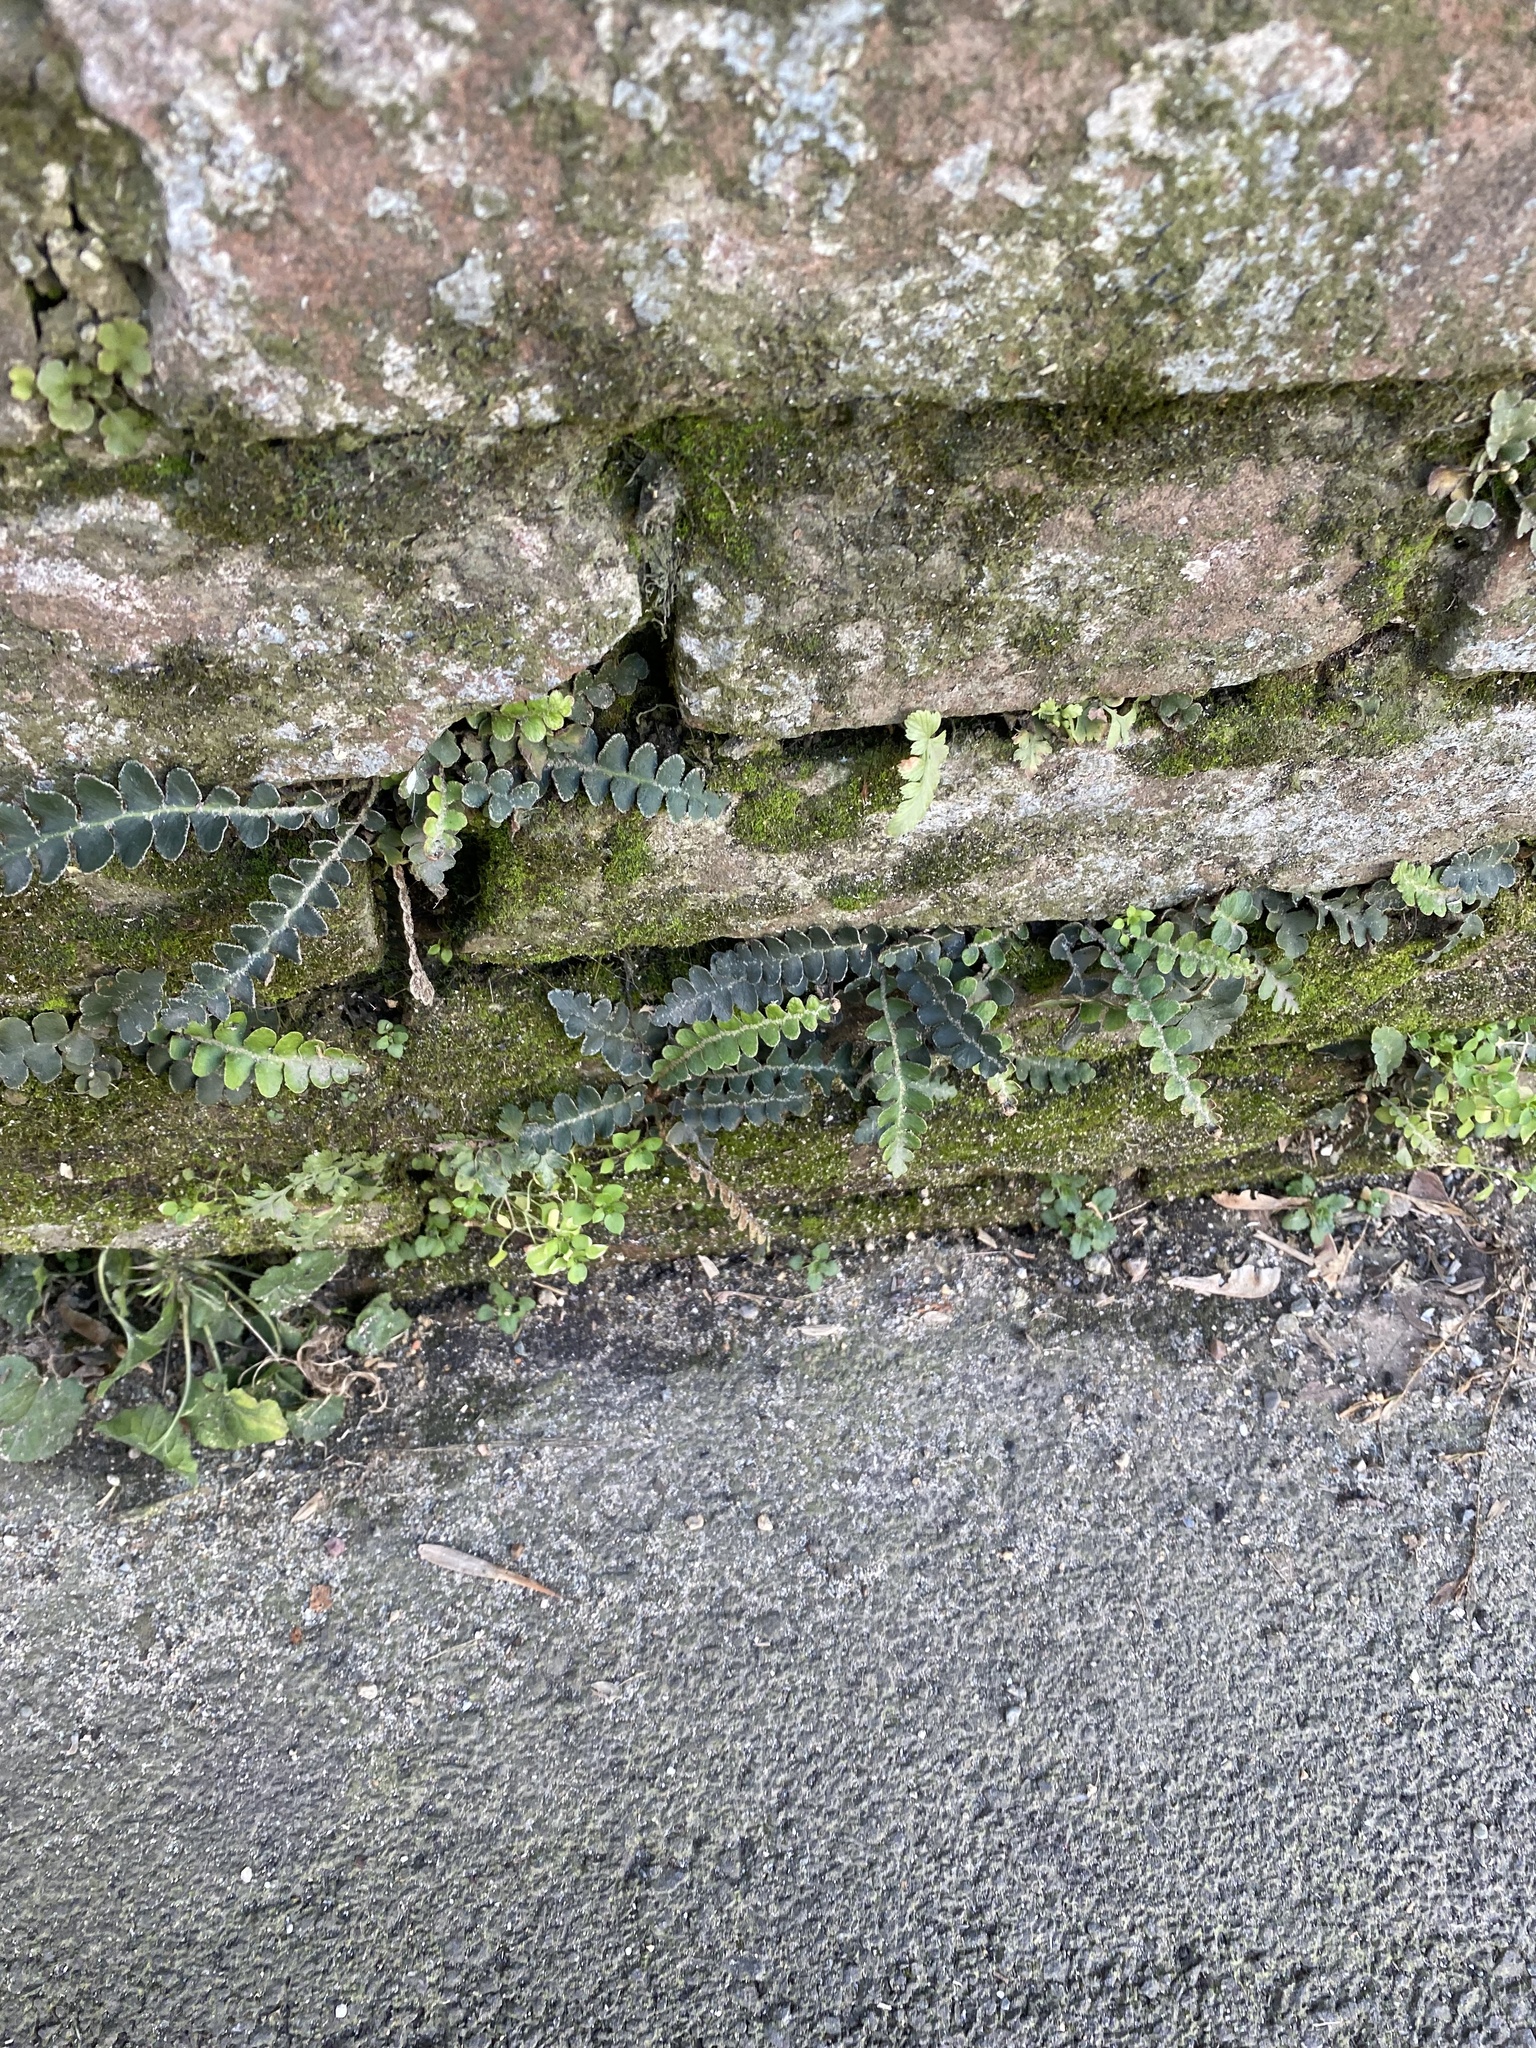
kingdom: Plantae
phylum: Tracheophyta
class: Polypodiopsida
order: Polypodiales
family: Aspleniaceae
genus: Asplenium
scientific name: Asplenium ceterach
